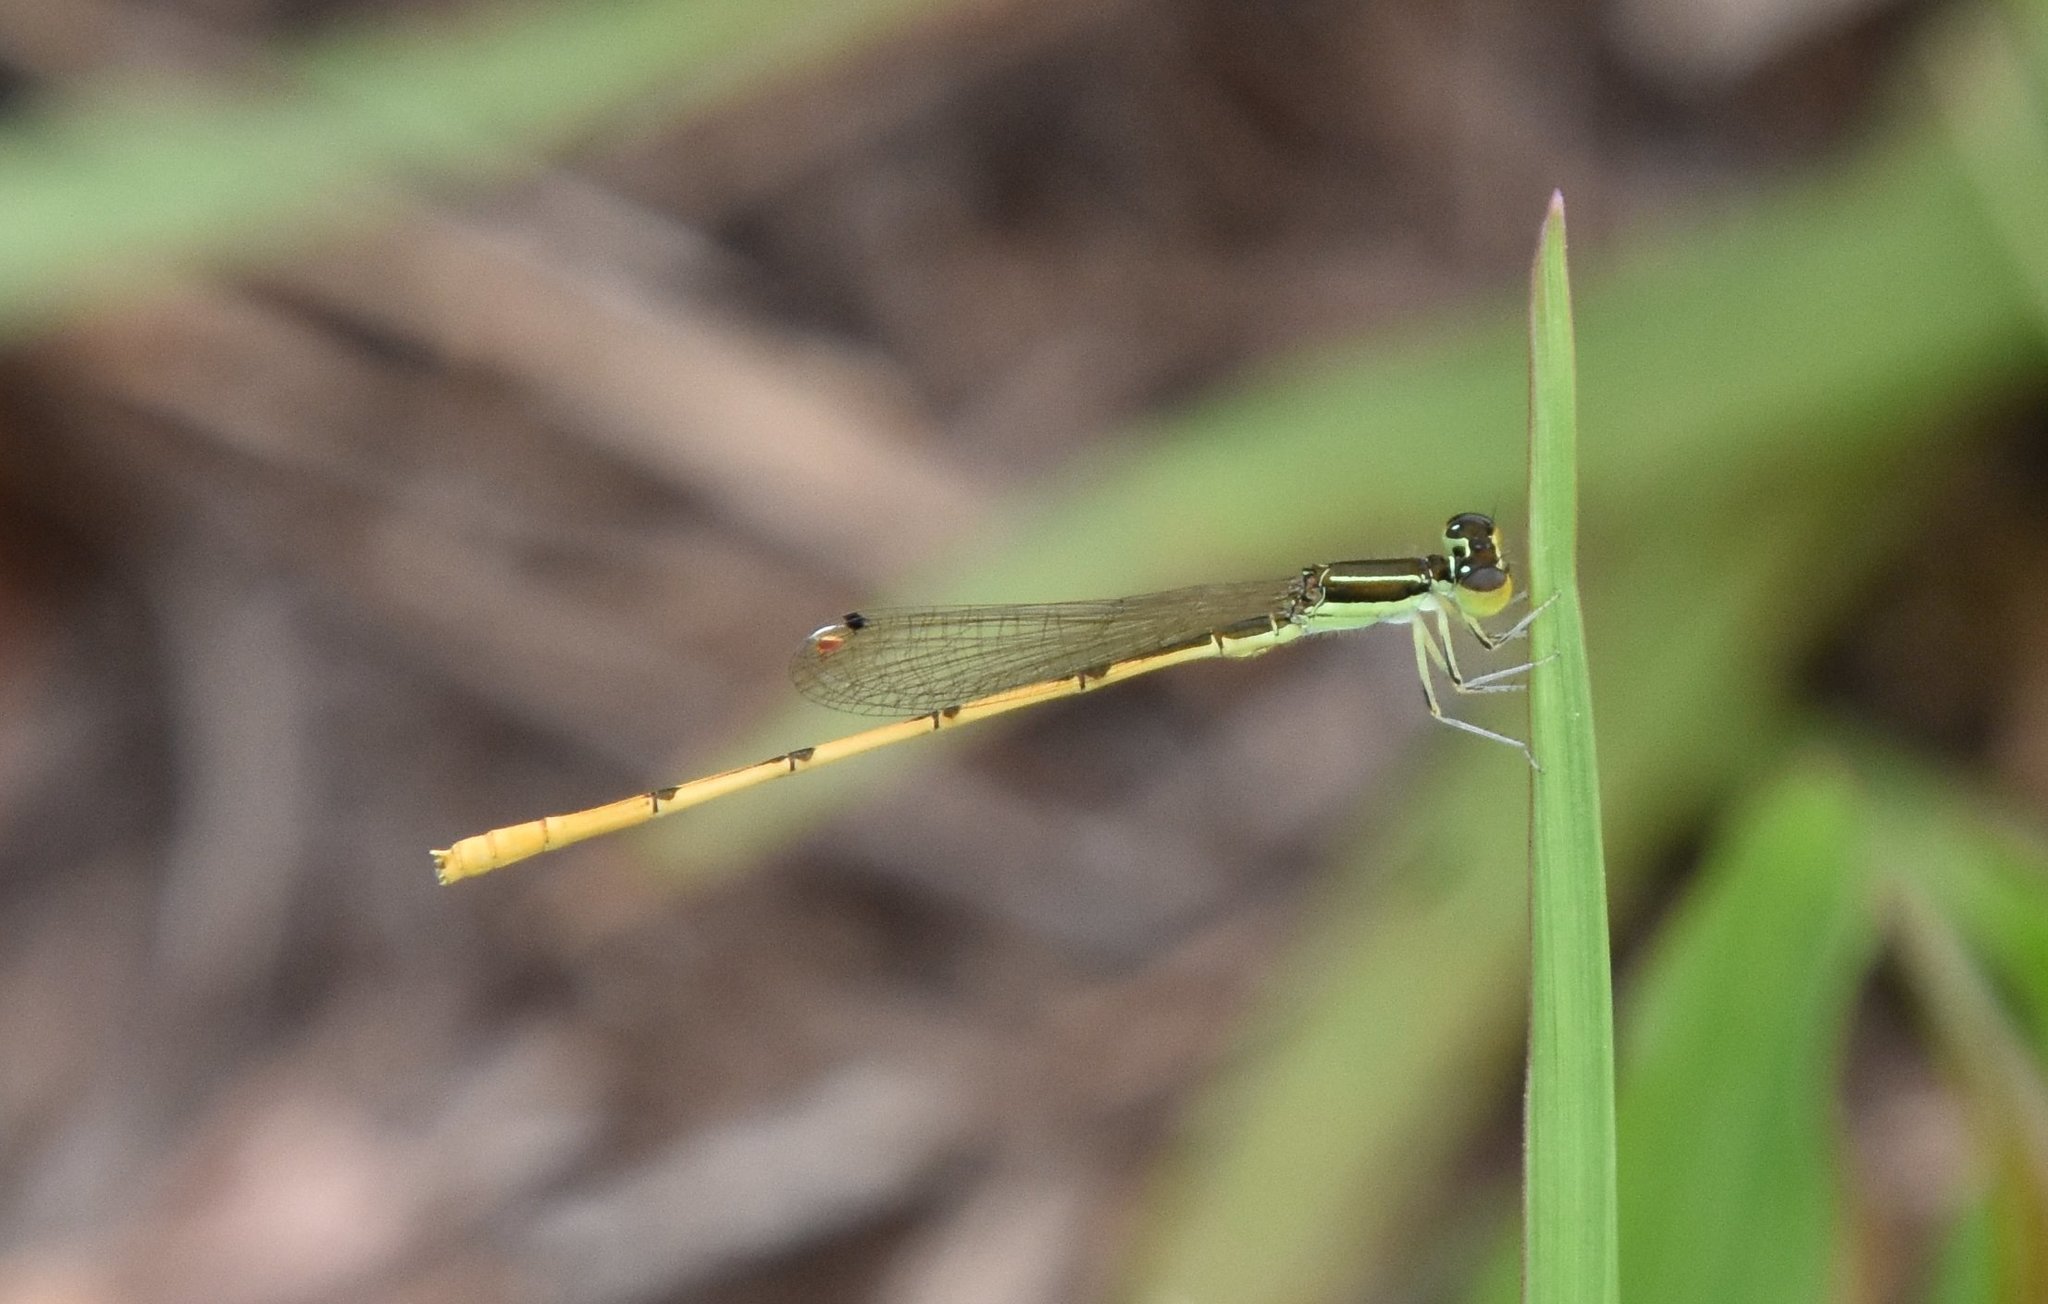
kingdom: Animalia
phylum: Arthropoda
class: Insecta
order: Odonata
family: Coenagrionidae
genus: Ischnura
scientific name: Ischnura hastata
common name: Citrine forktail
